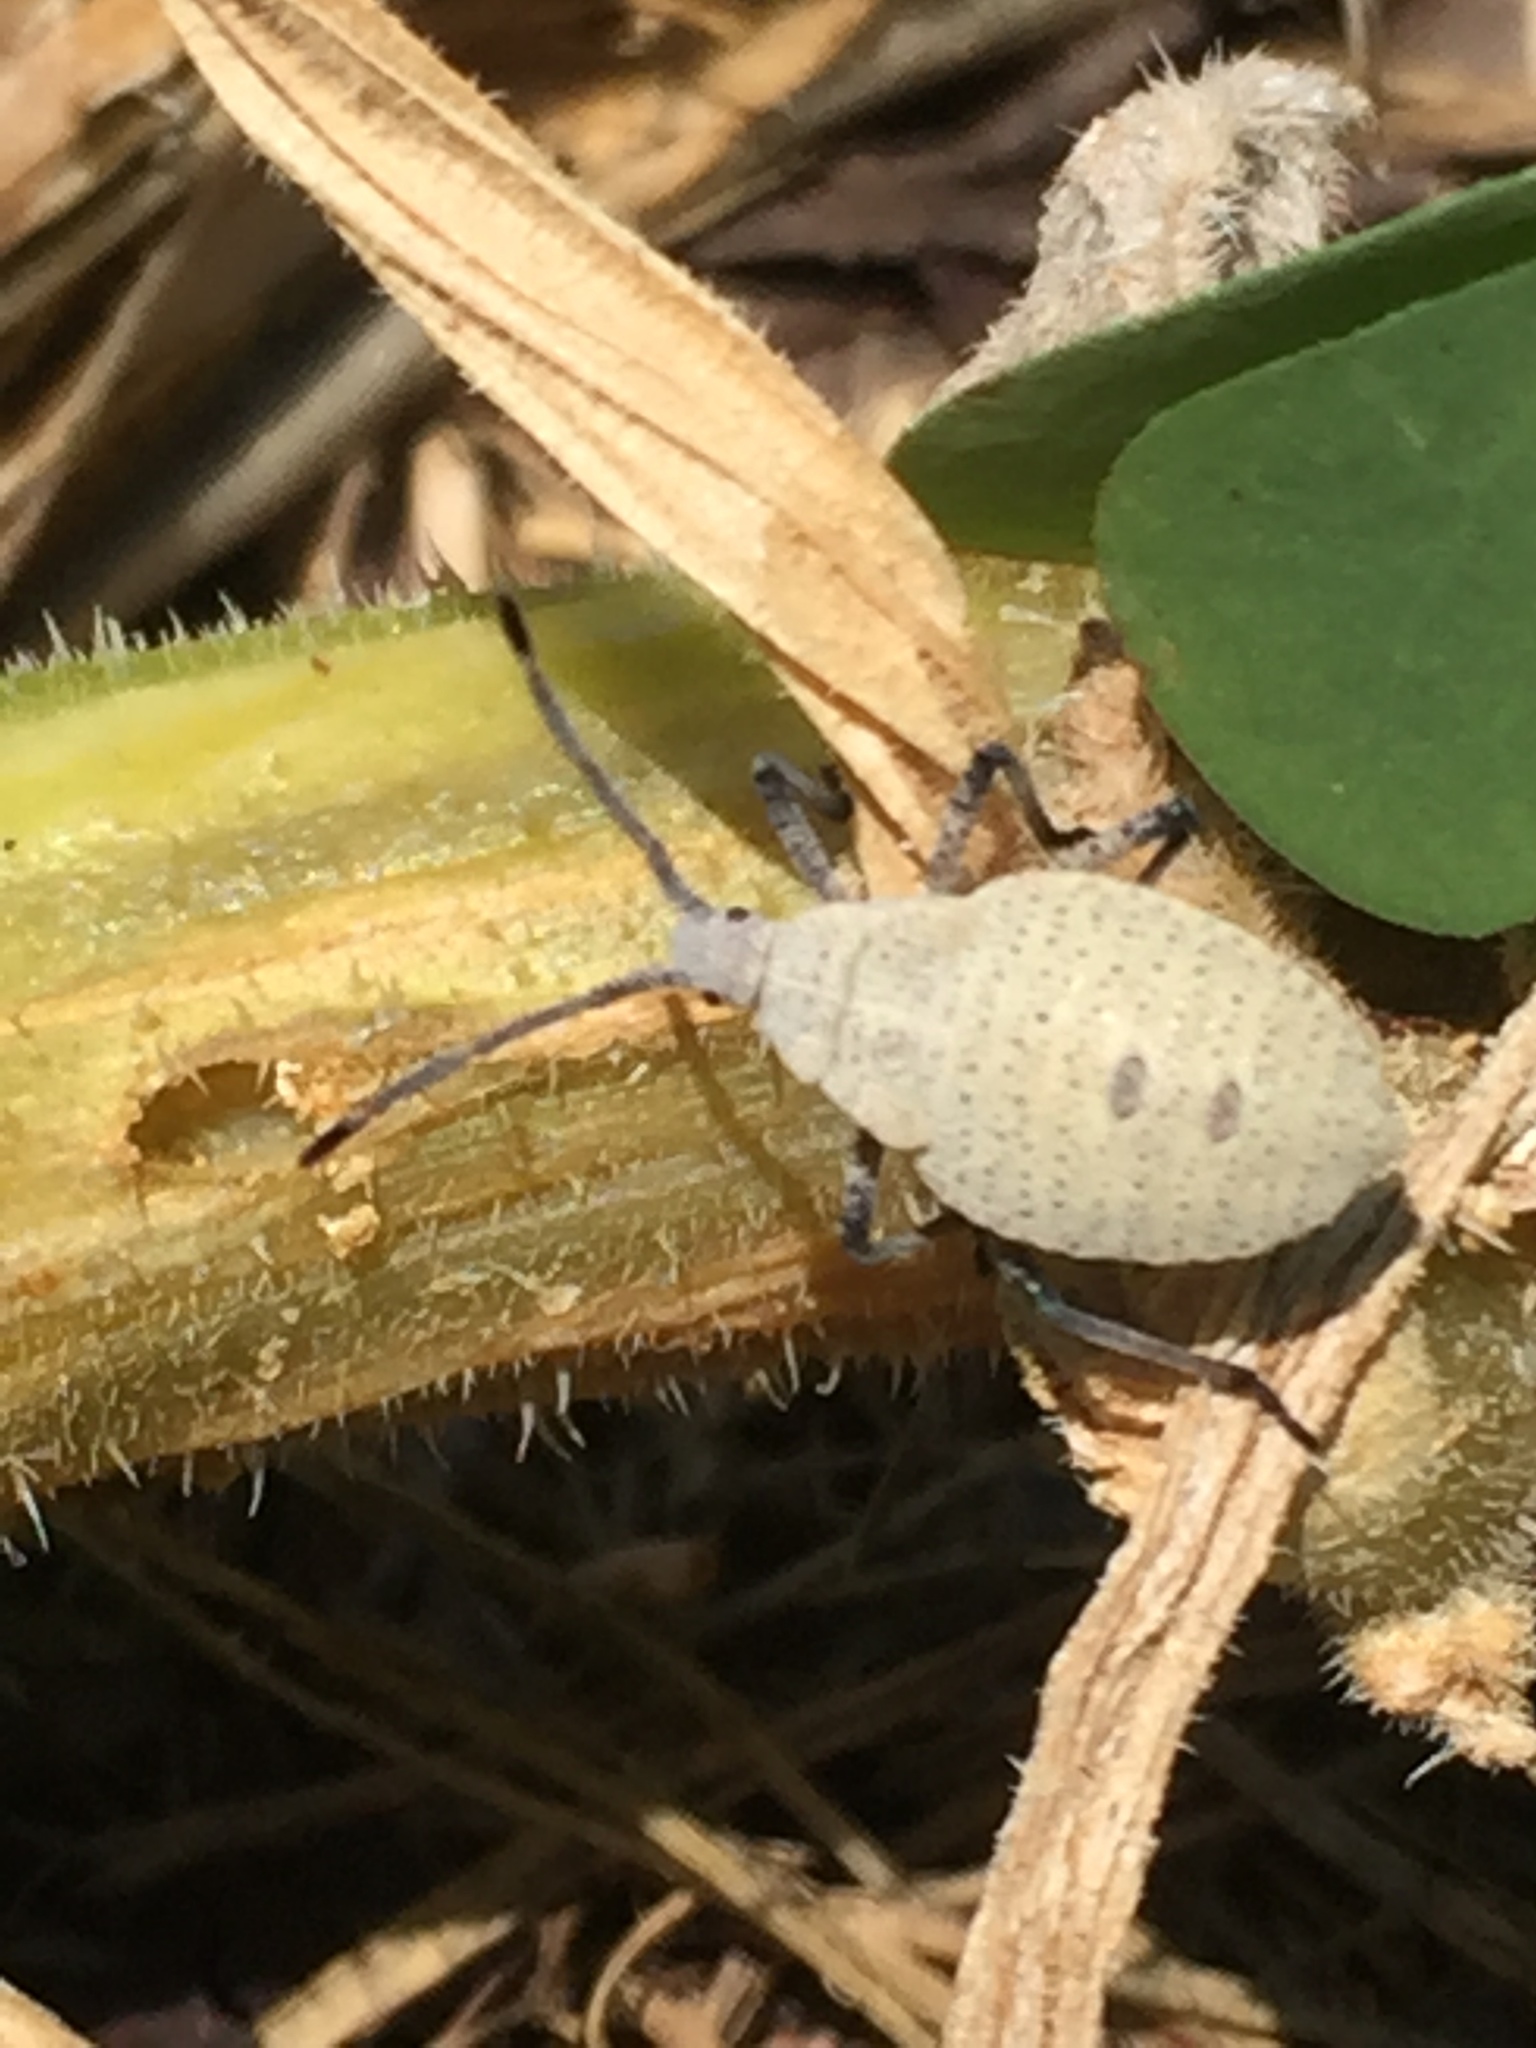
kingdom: Animalia
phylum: Arthropoda
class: Insecta
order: Hemiptera
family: Coreidae
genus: Anasa
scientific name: Anasa tristis
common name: Squash bug
